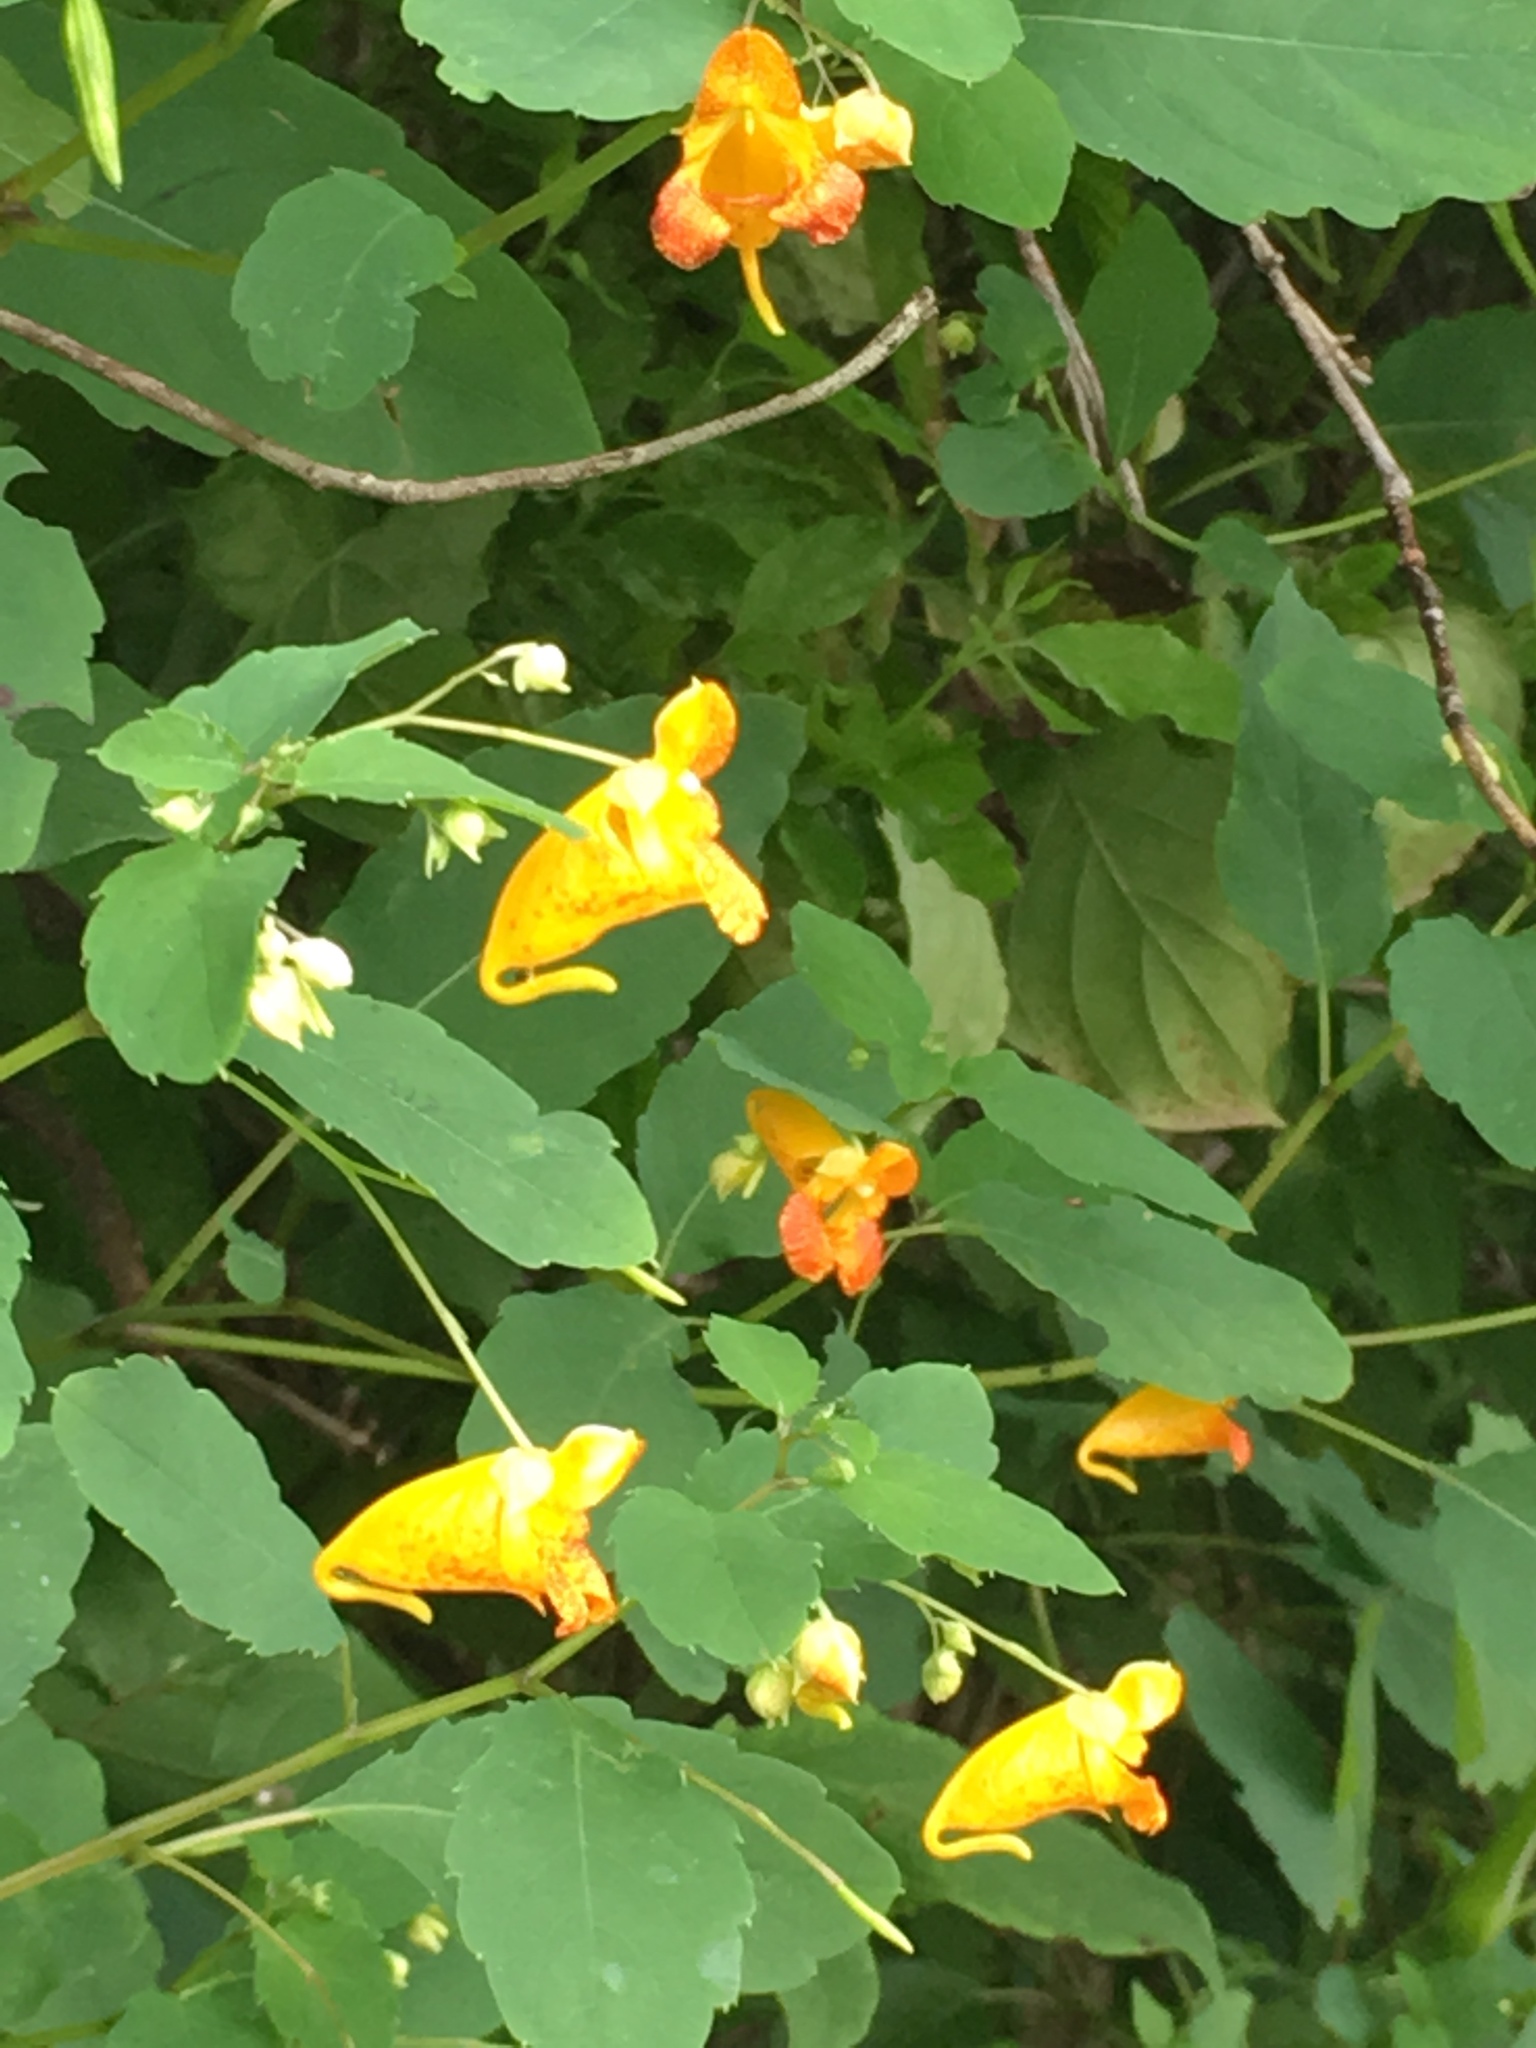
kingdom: Plantae
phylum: Tracheophyta
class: Magnoliopsida
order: Ericales
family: Balsaminaceae
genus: Impatiens
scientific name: Impatiens capensis
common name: Orange balsam
